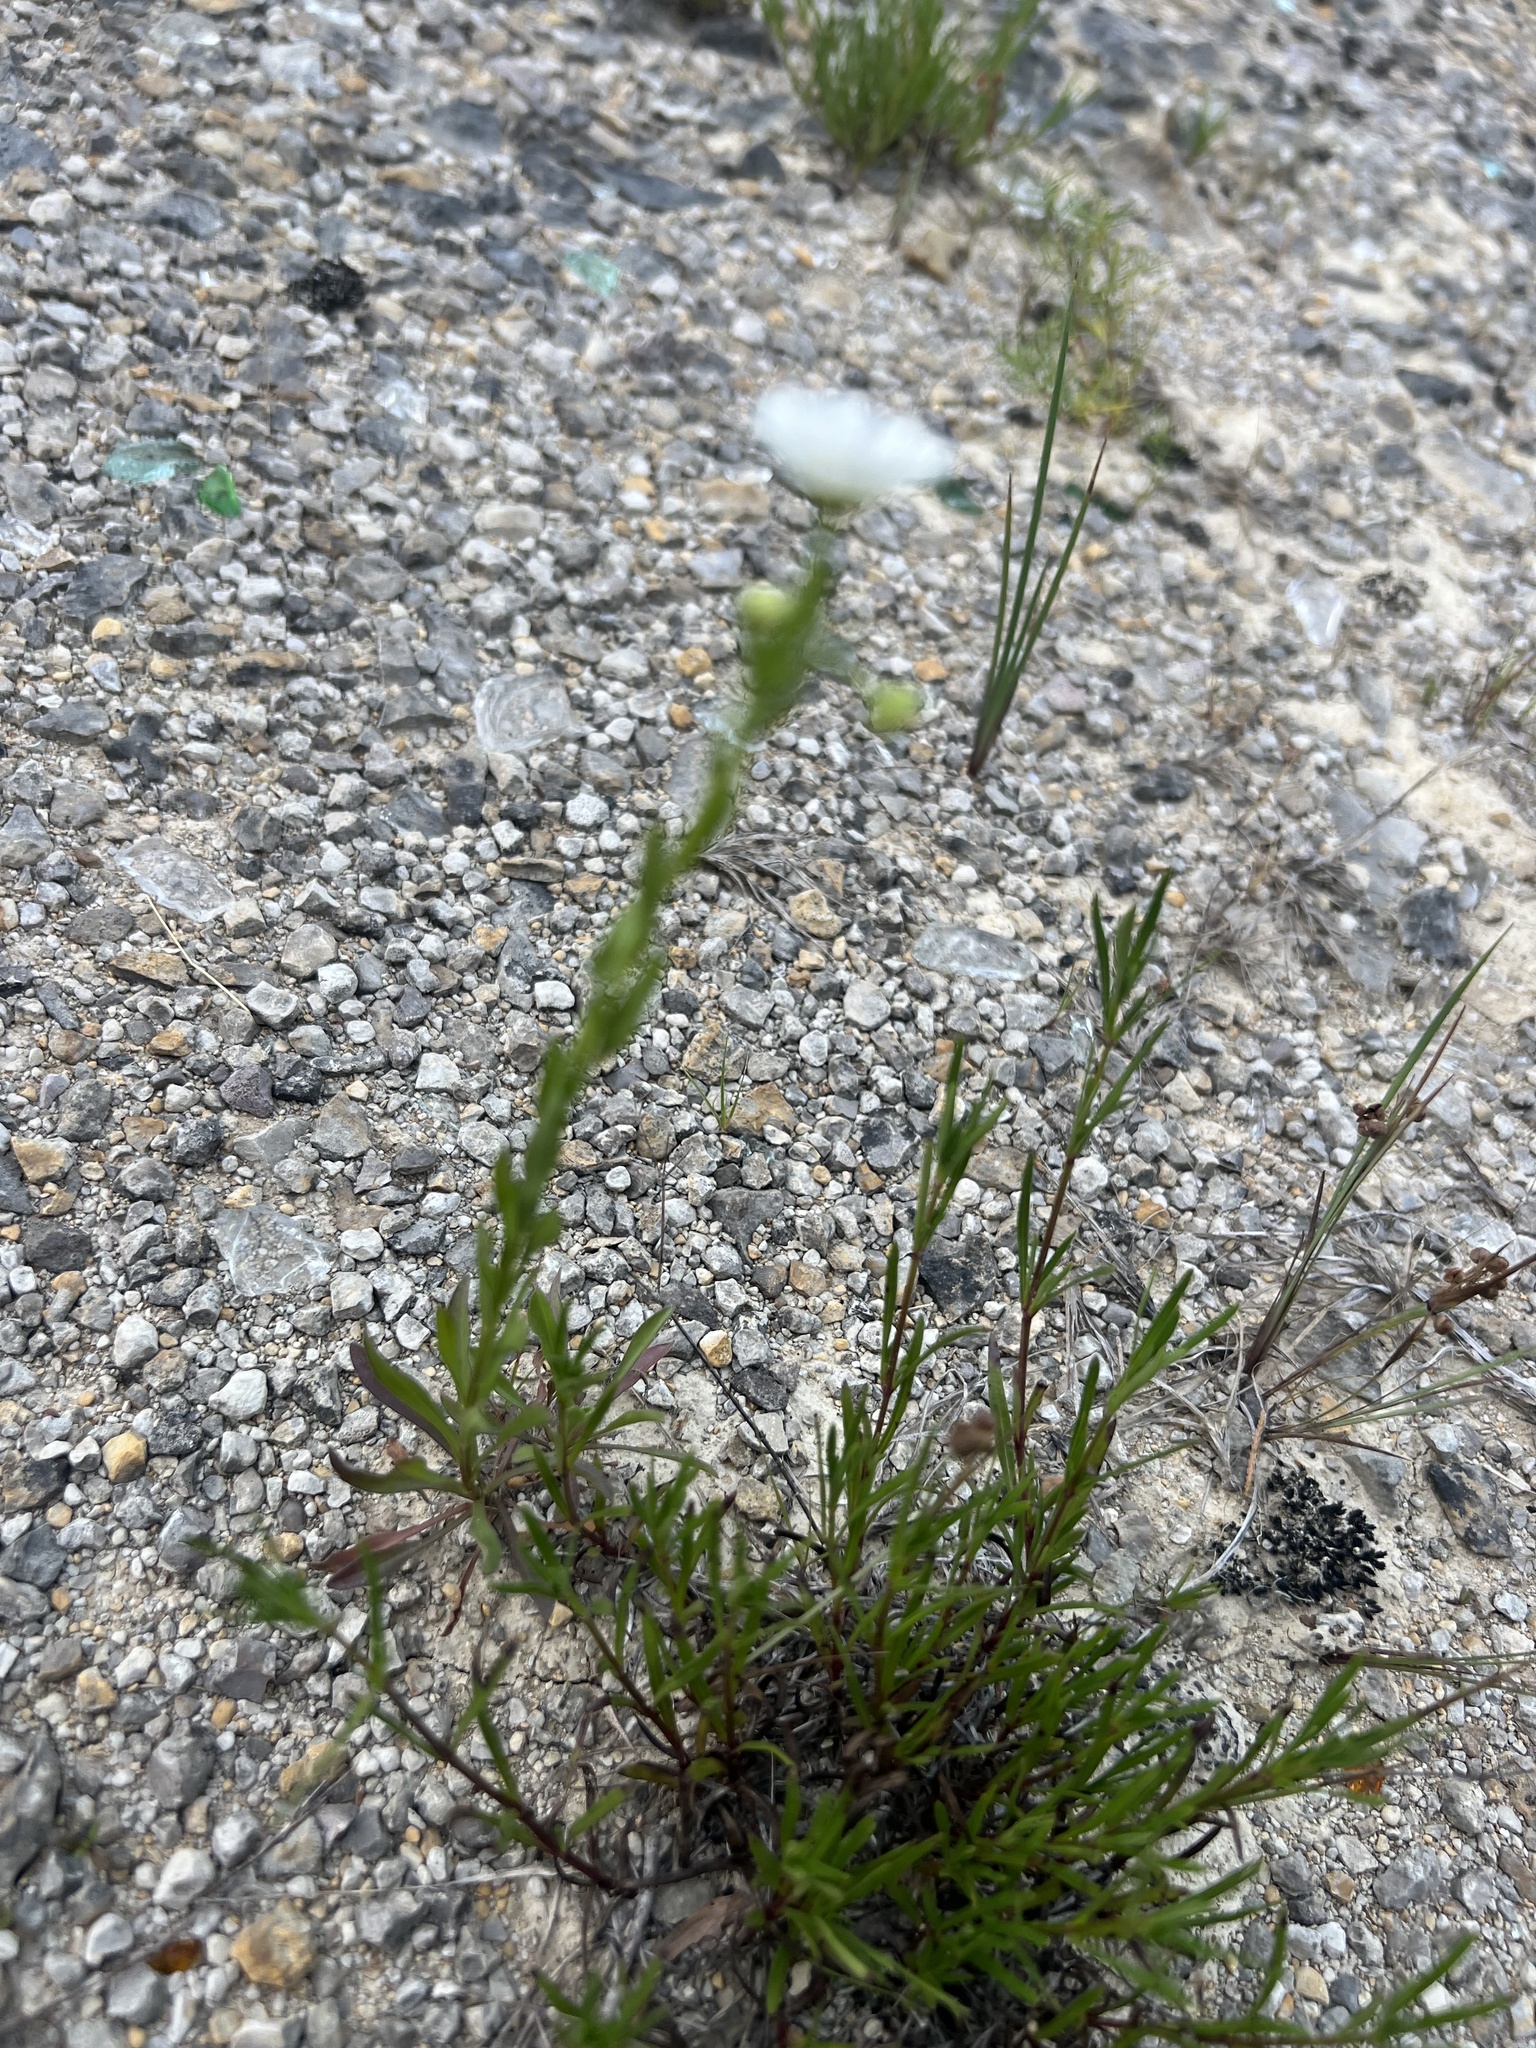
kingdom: Plantae
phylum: Tracheophyta
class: Magnoliopsida
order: Asterales
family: Asteraceae
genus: Erigeron
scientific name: Erigeron allisonii
